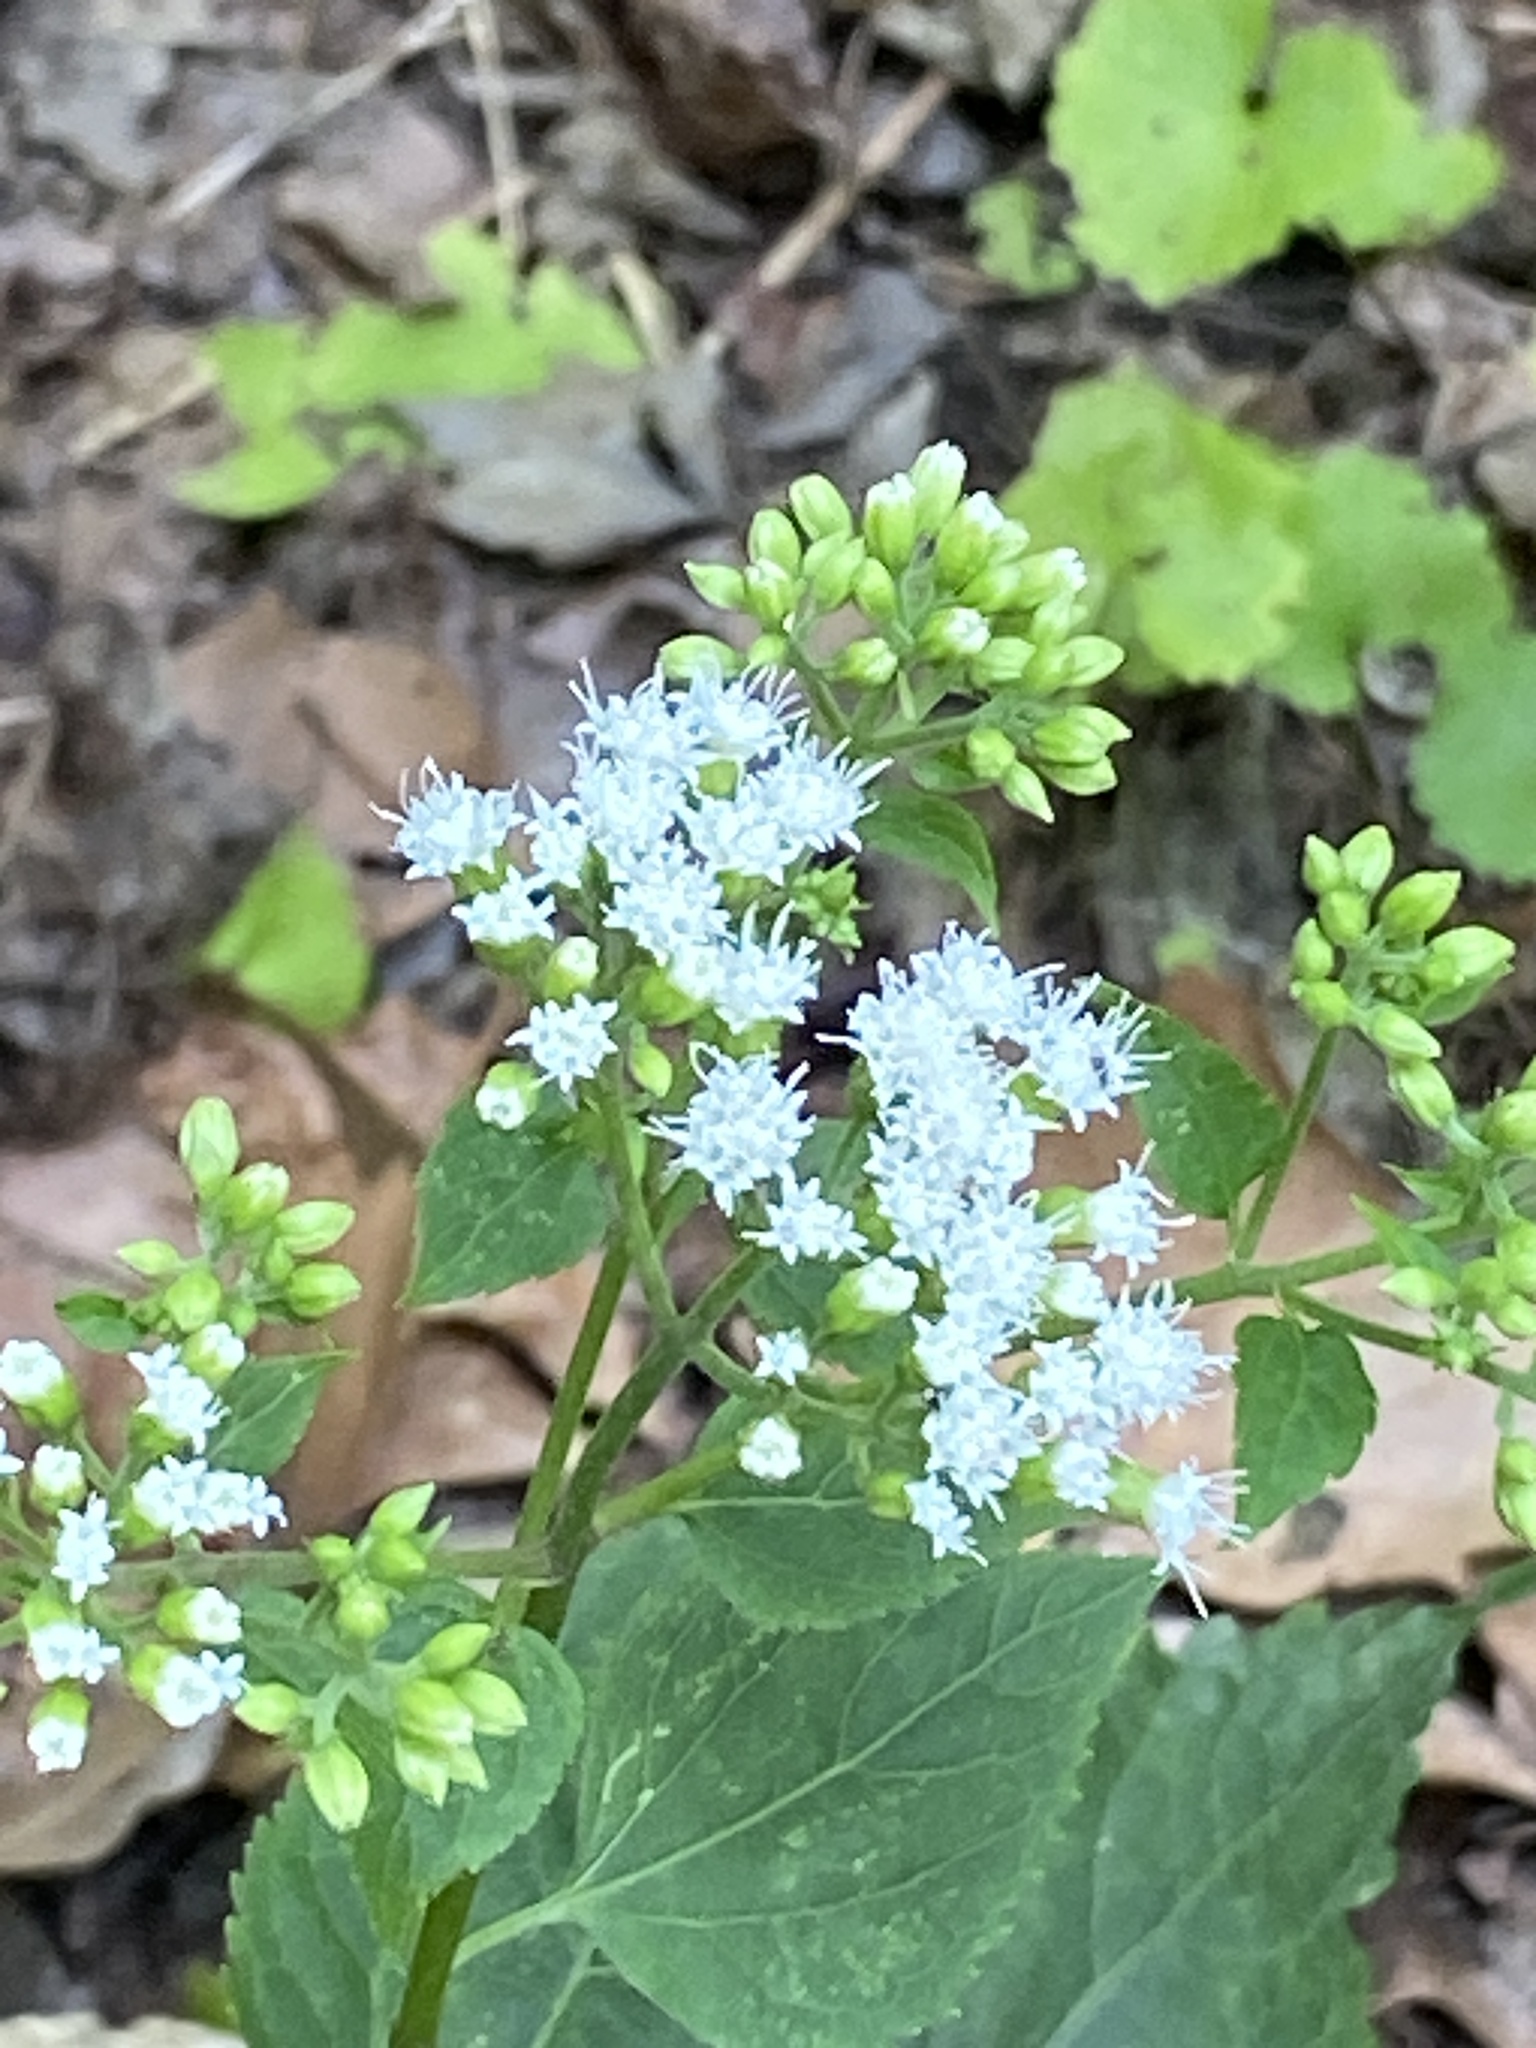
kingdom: Plantae
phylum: Tracheophyta
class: Magnoliopsida
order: Asterales
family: Asteraceae
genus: Ageratina
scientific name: Ageratina altissima
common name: White snakeroot
